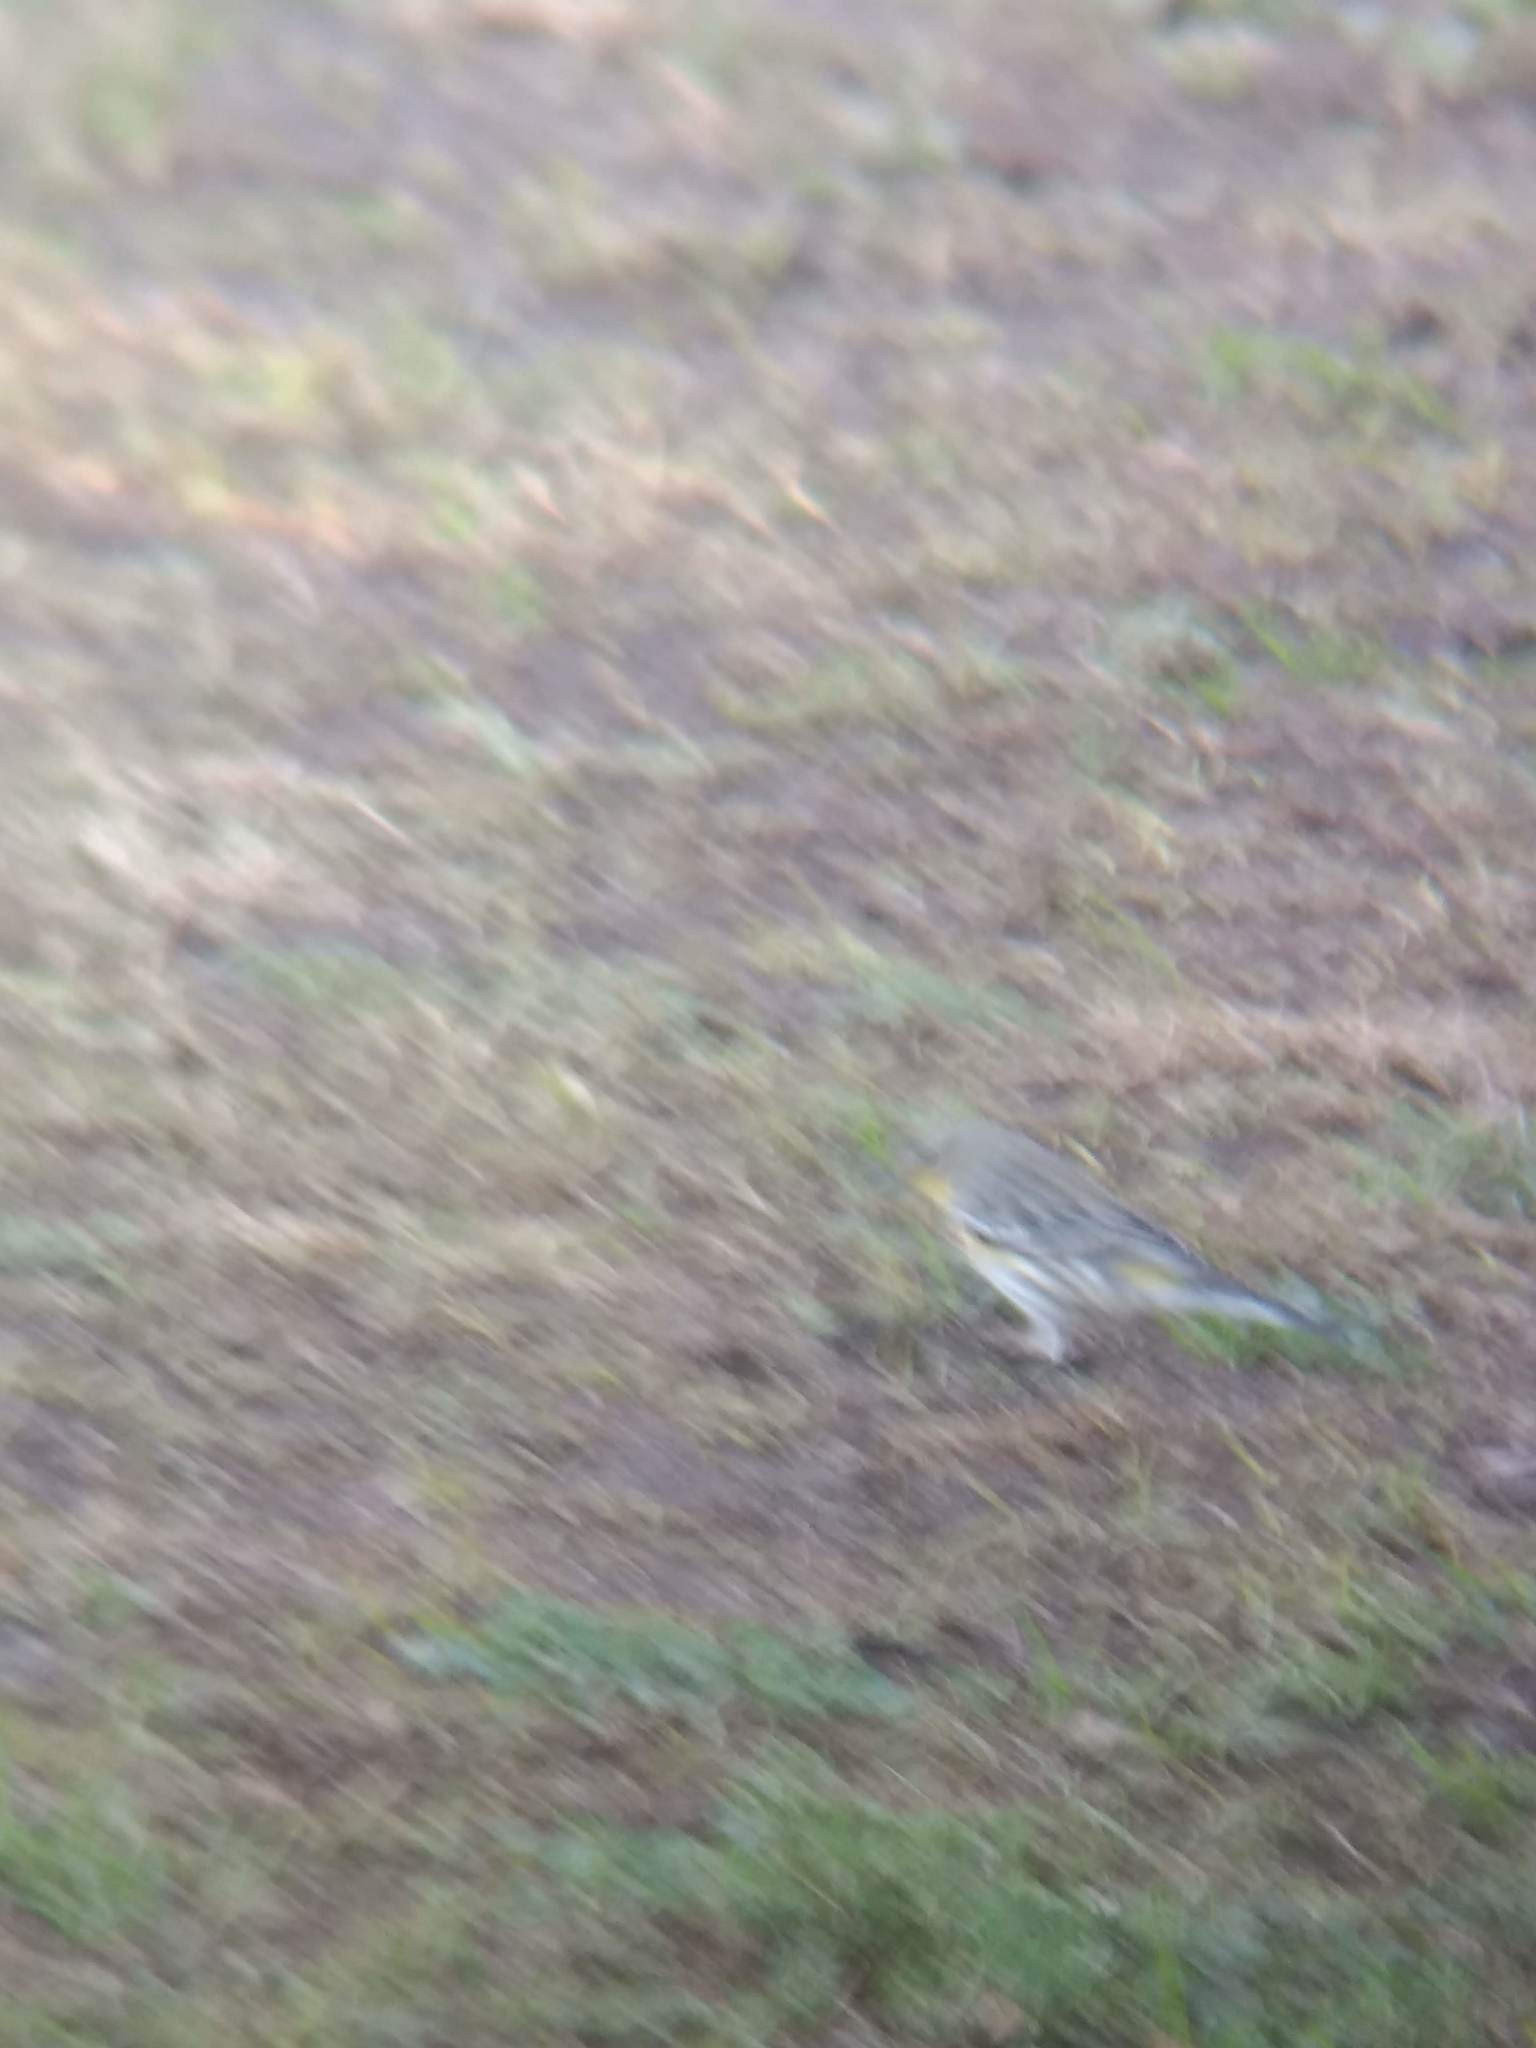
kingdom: Animalia
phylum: Chordata
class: Aves
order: Passeriformes
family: Parulidae
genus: Setophaga
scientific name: Setophaga coronata
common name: Myrtle warbler
